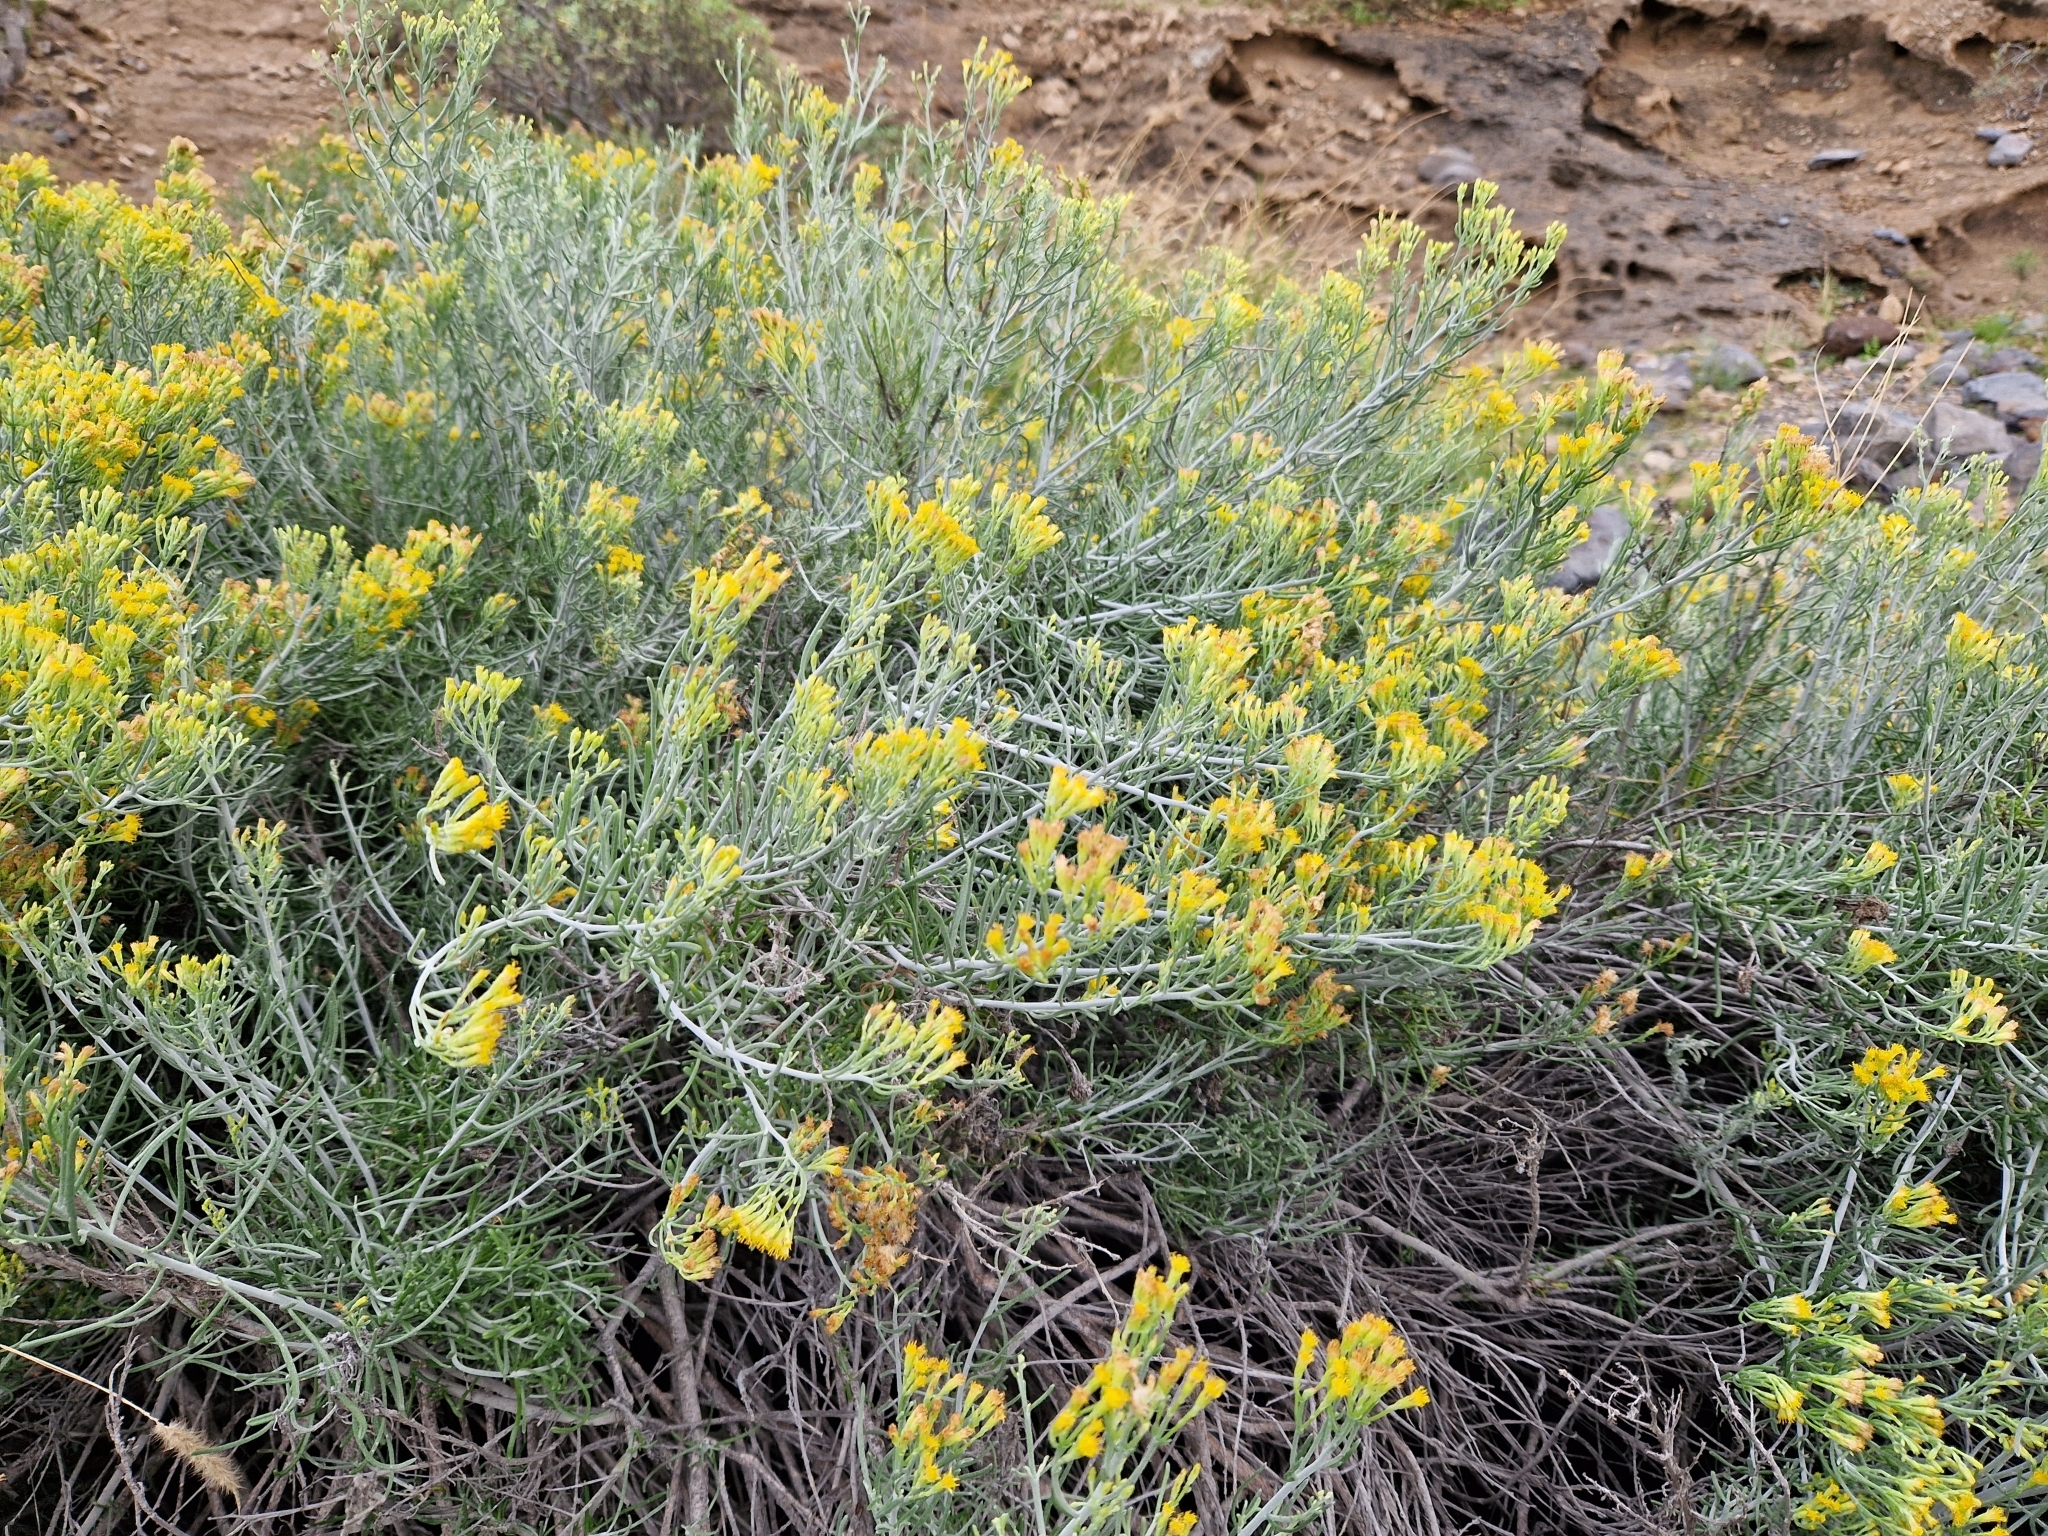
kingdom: Plantae
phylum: Tracheophyta
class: Magnoliopsida
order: Asterales
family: Asteraceae
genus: Schizogyne
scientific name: Schizogyne sericea
